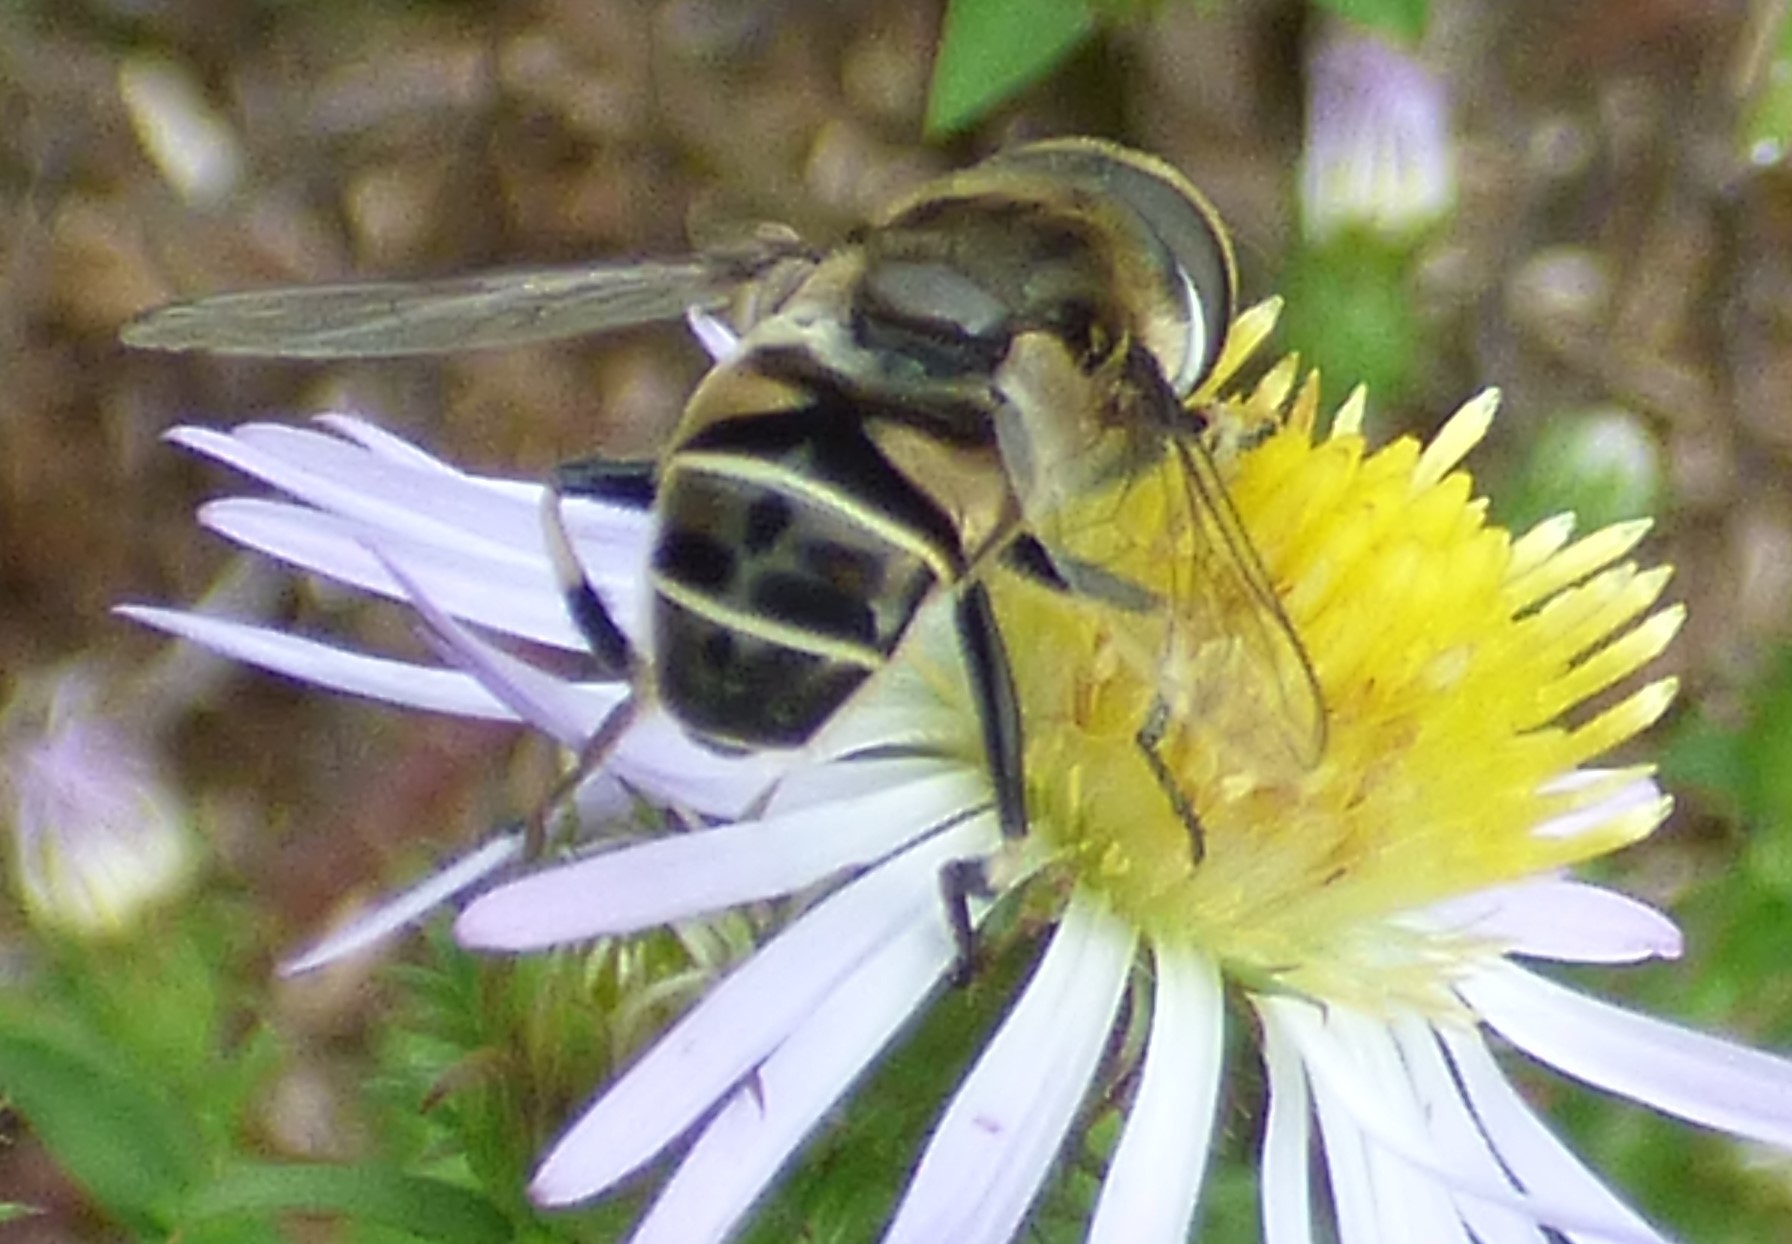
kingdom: Animalia
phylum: Arthropoda
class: Insecta
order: Diptera
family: Syrphidae
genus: Eristalis
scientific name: Eristalis dimidiata
